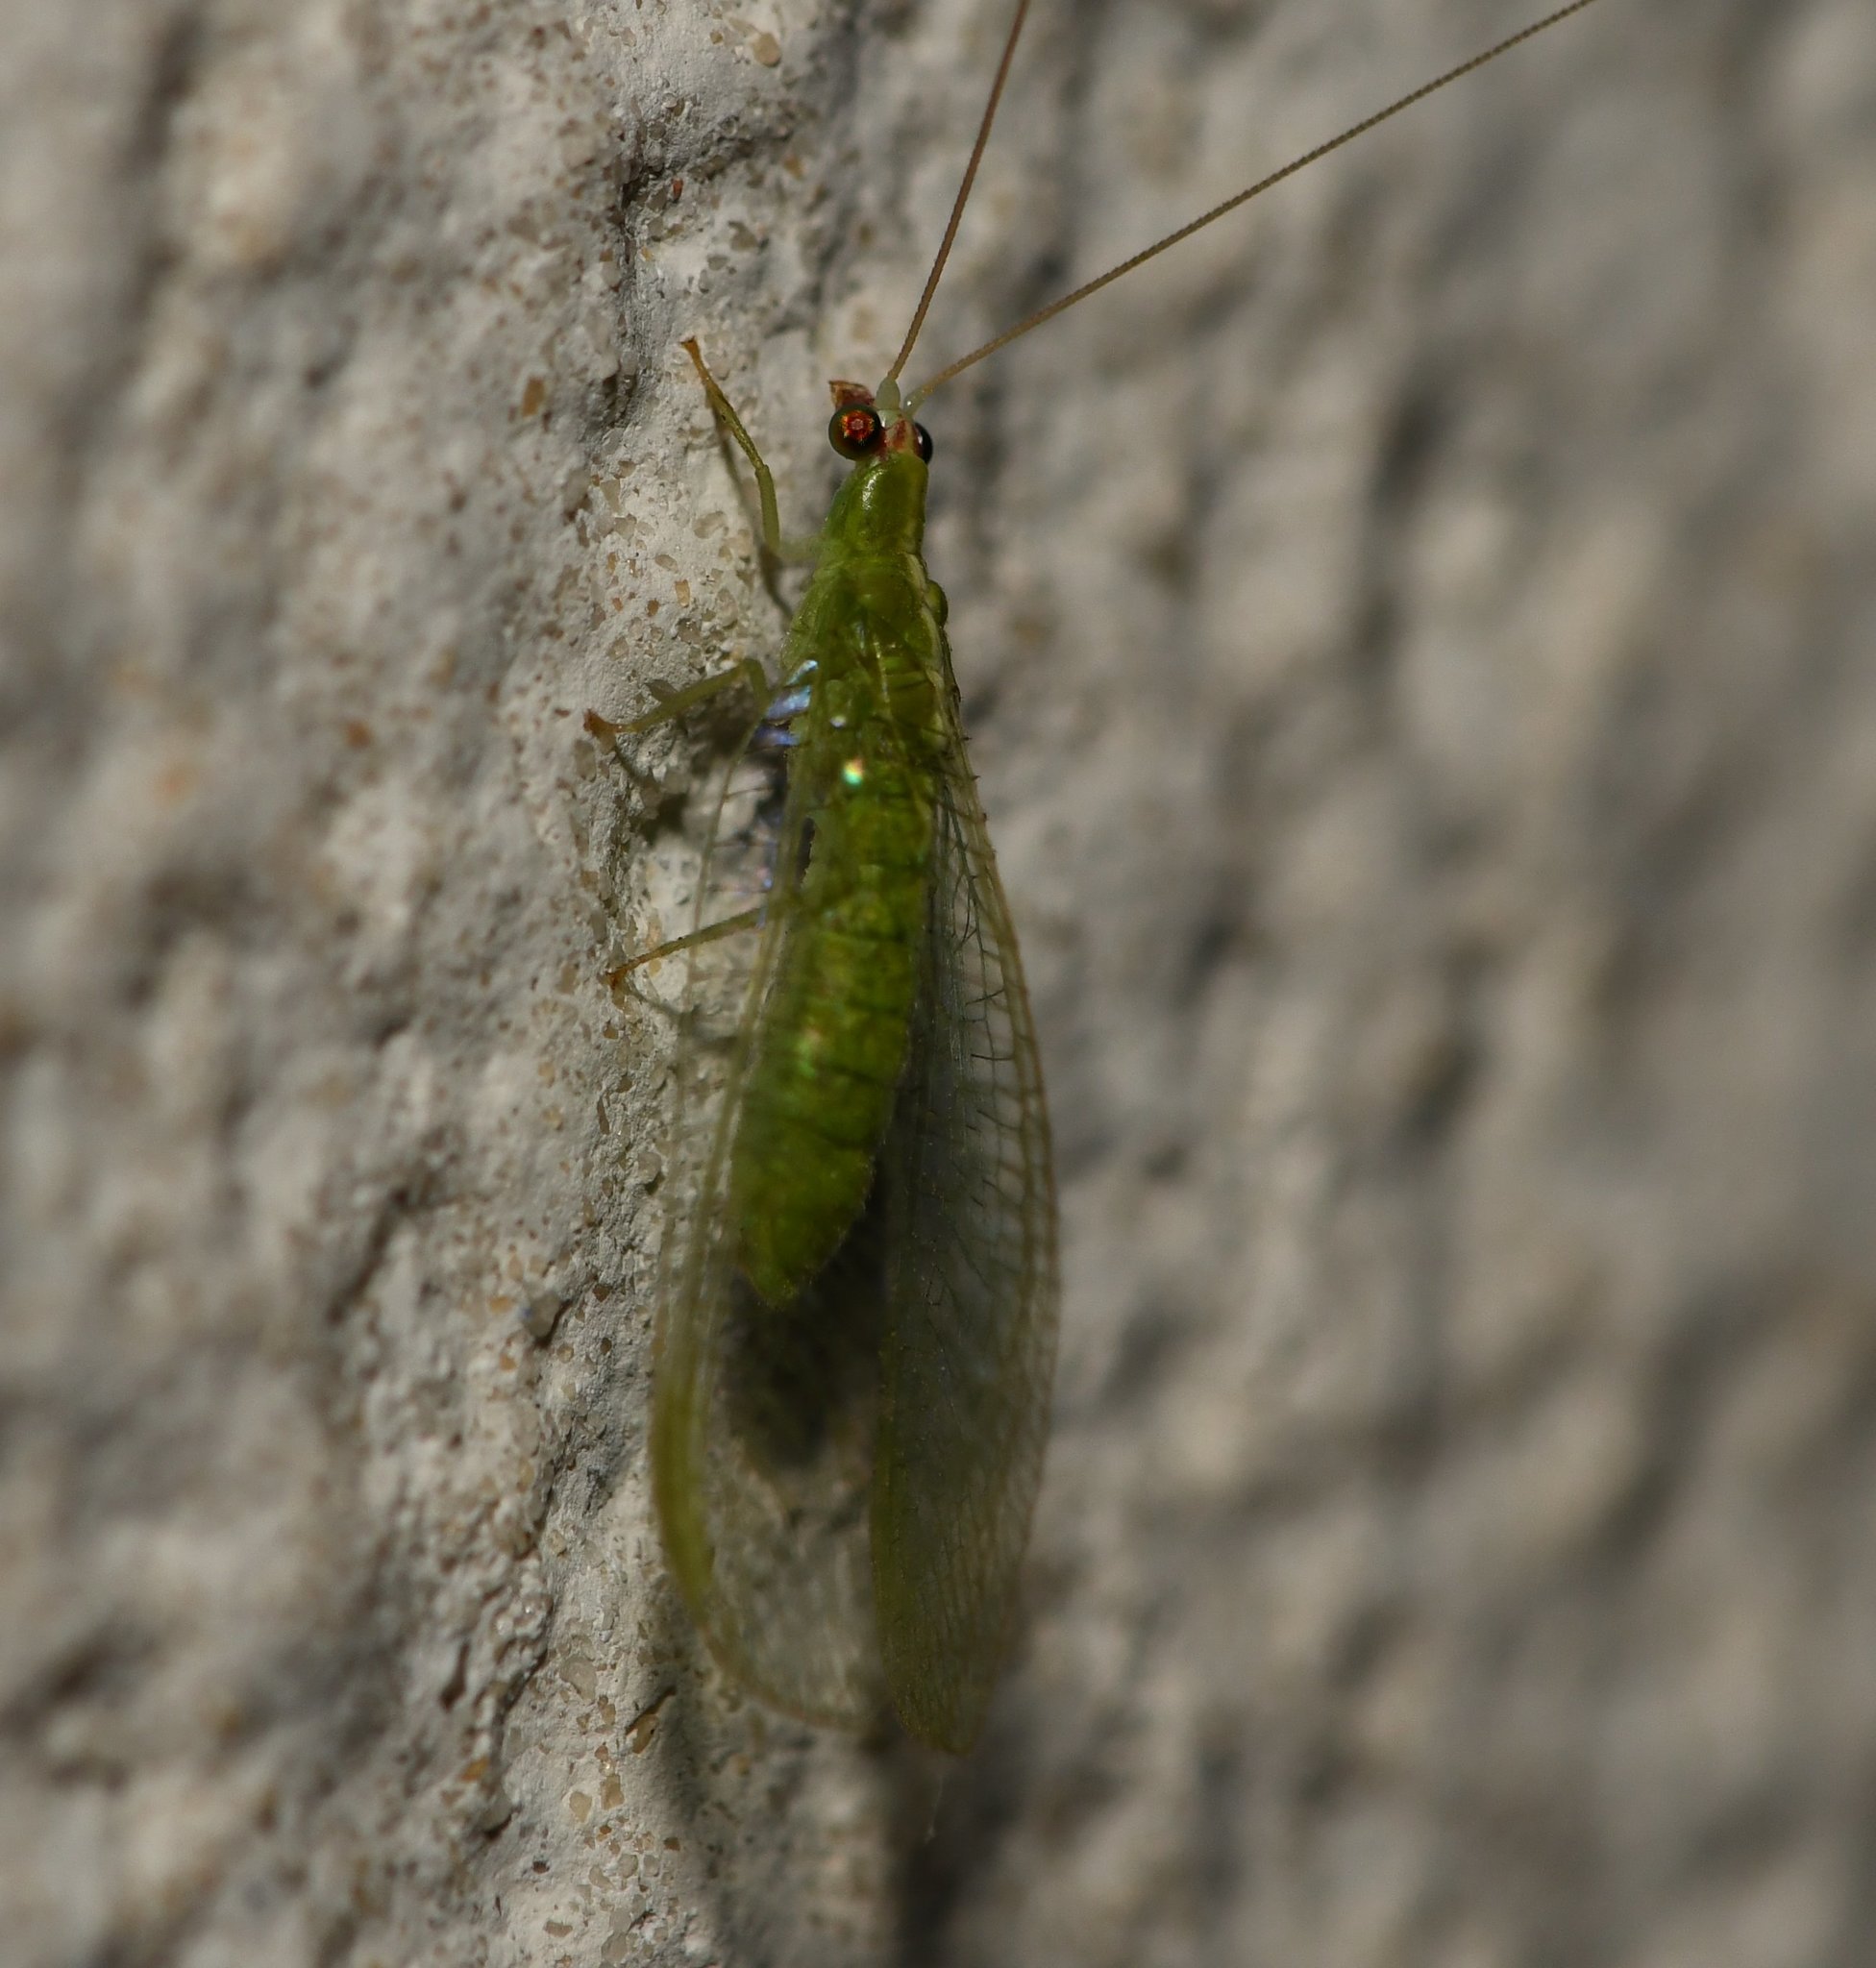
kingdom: Animalia
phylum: Arthropoda
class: Insecta
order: Neuroptera
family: Chrysopidae
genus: Chrysopodes
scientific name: Chrysopodes collaris
